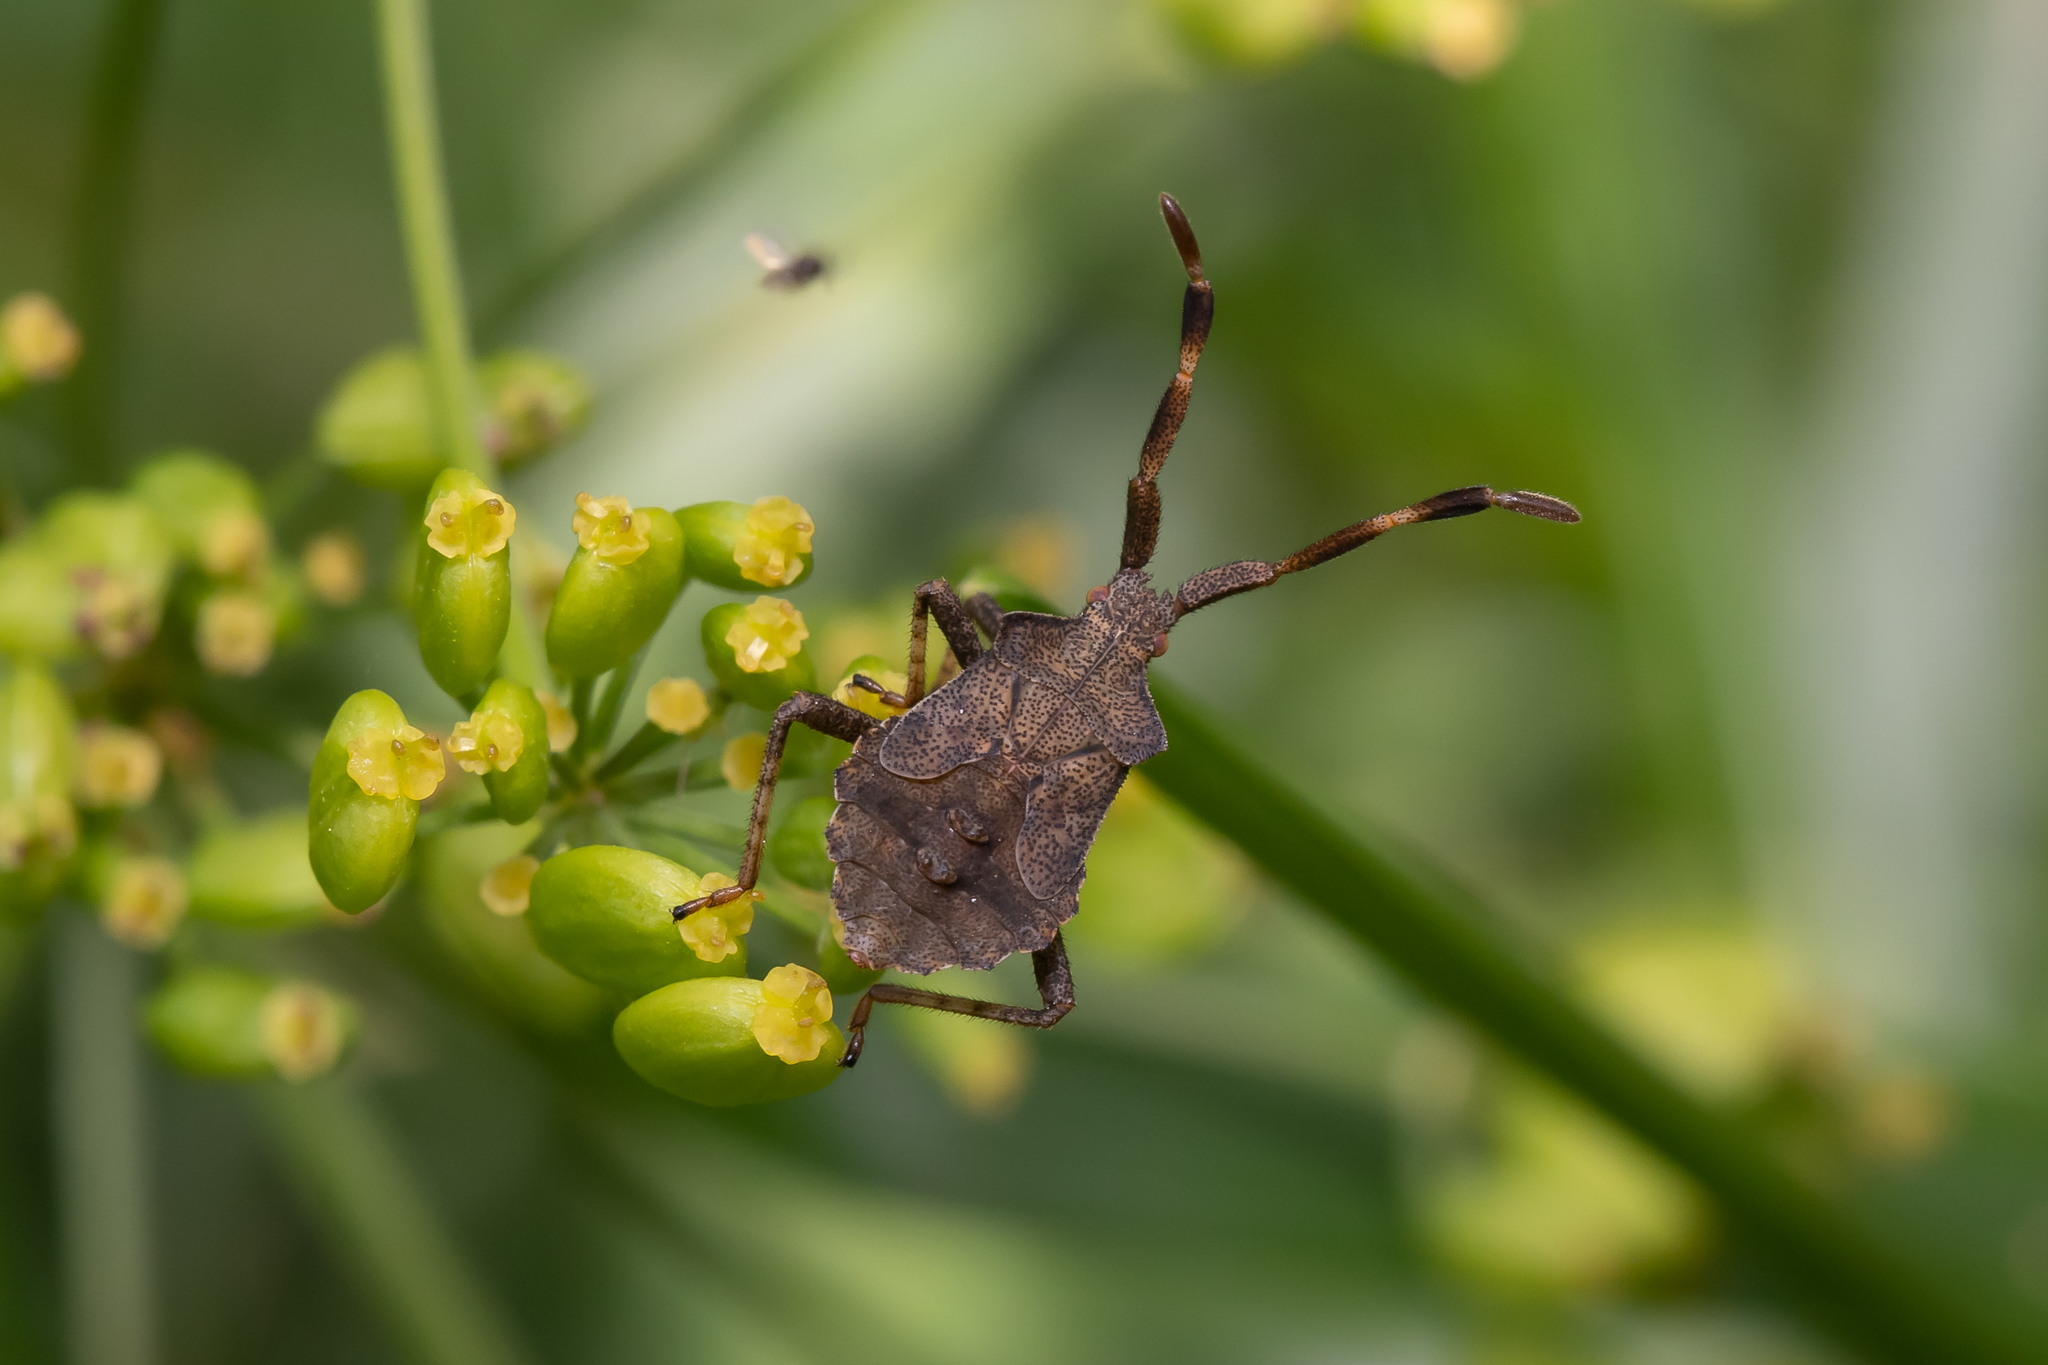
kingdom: Animalia
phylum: Arthropoda
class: Insecta
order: Hemiptera
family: Coreidae
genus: Coreus
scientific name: Coreus marginatus
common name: Dock bug
